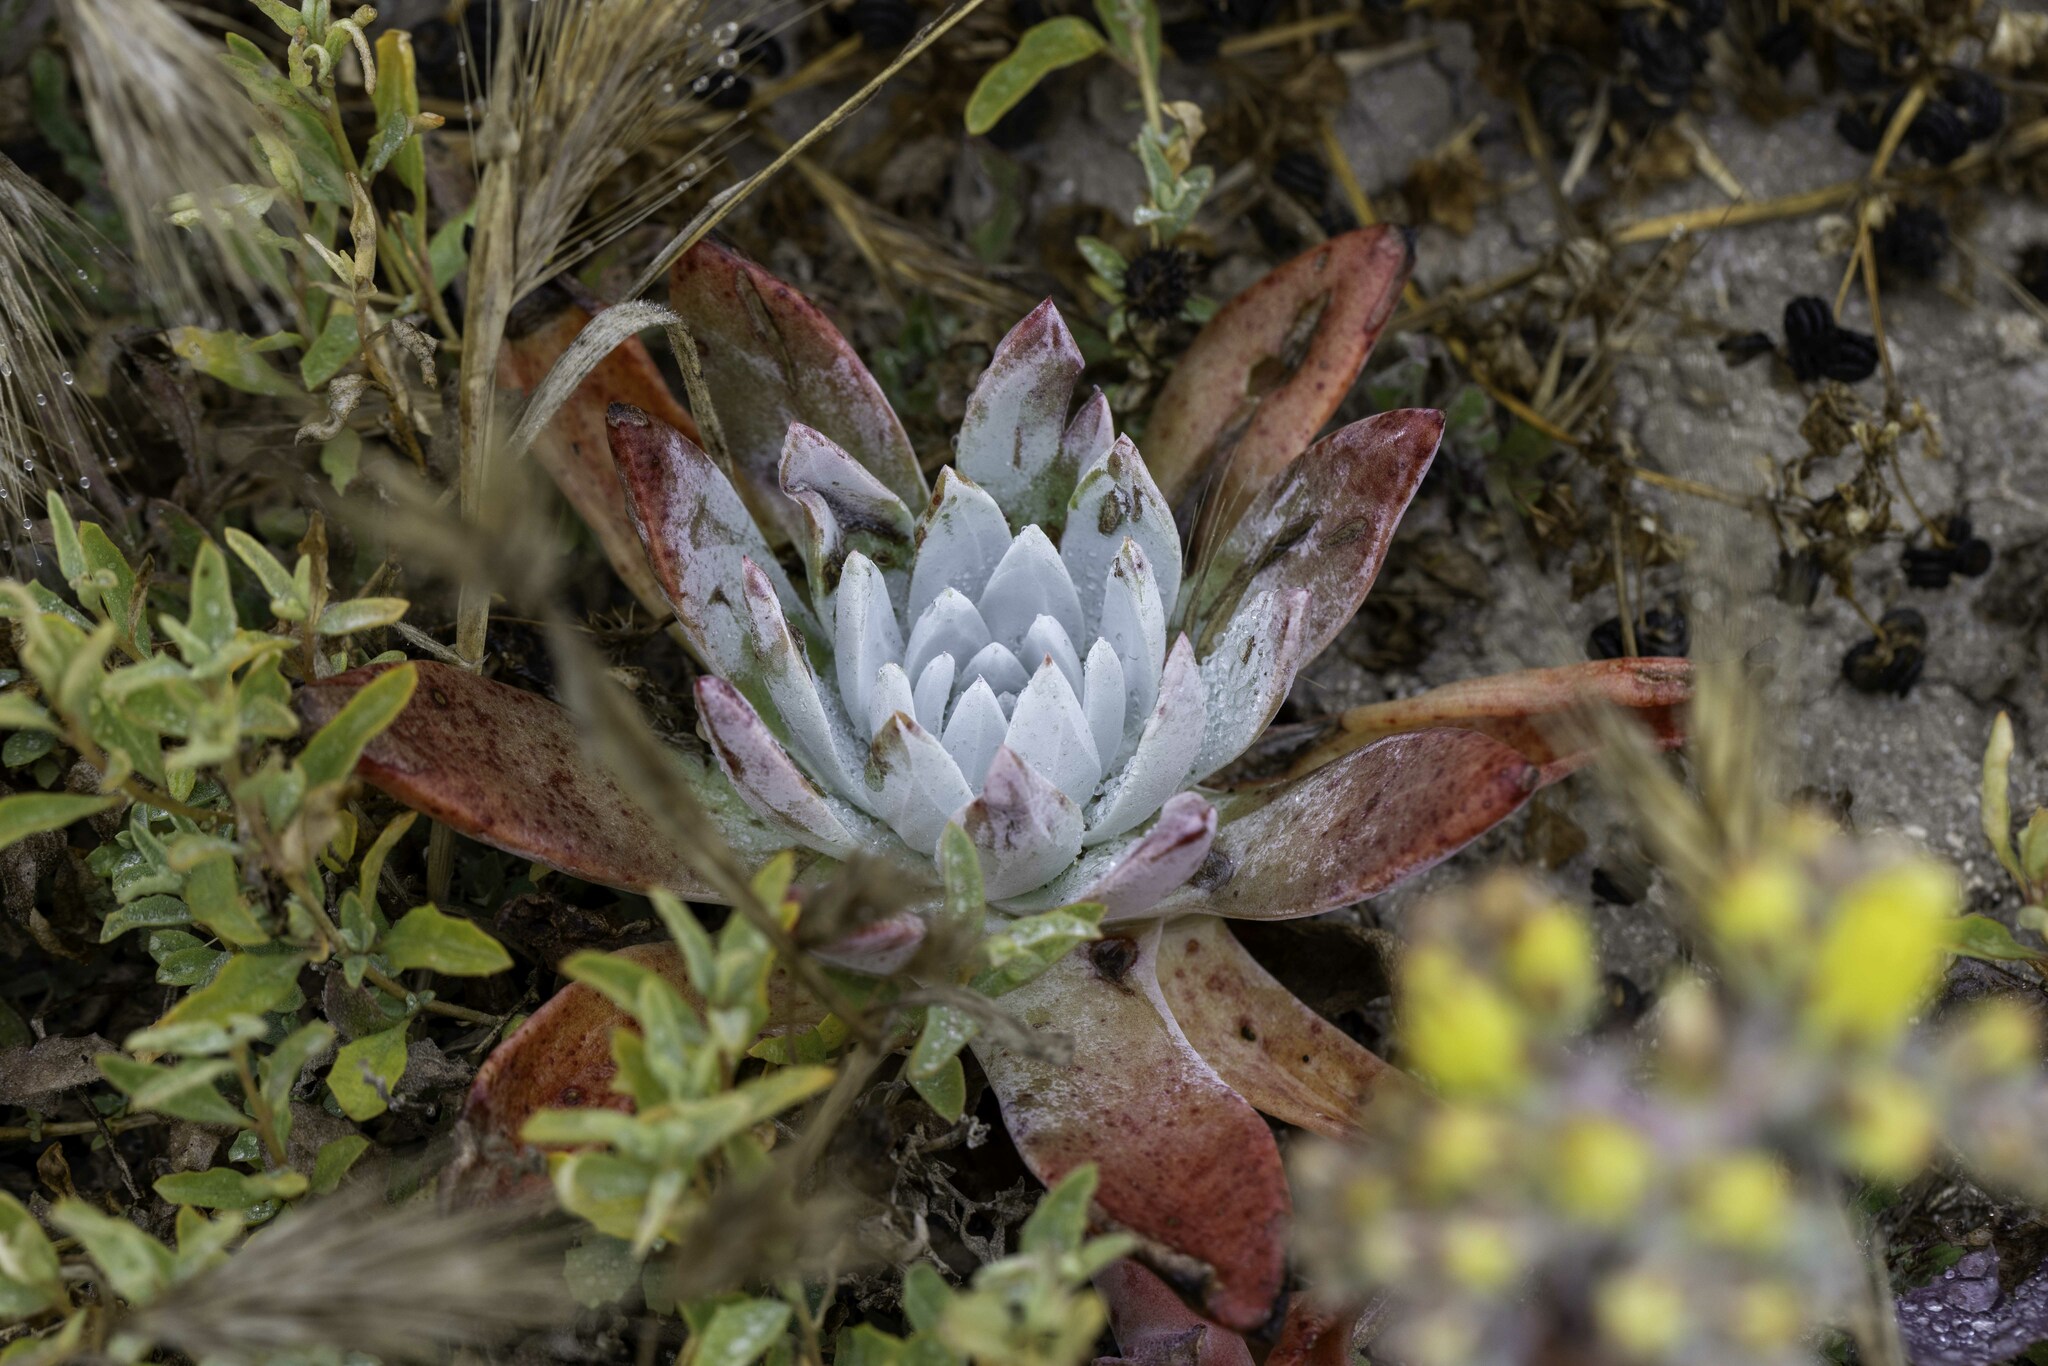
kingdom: Plantae
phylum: Tracheophyta
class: Magnoliopsida
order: Saxifragales
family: Crassulaceae
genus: Dudleya
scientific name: Dudleya greenei
